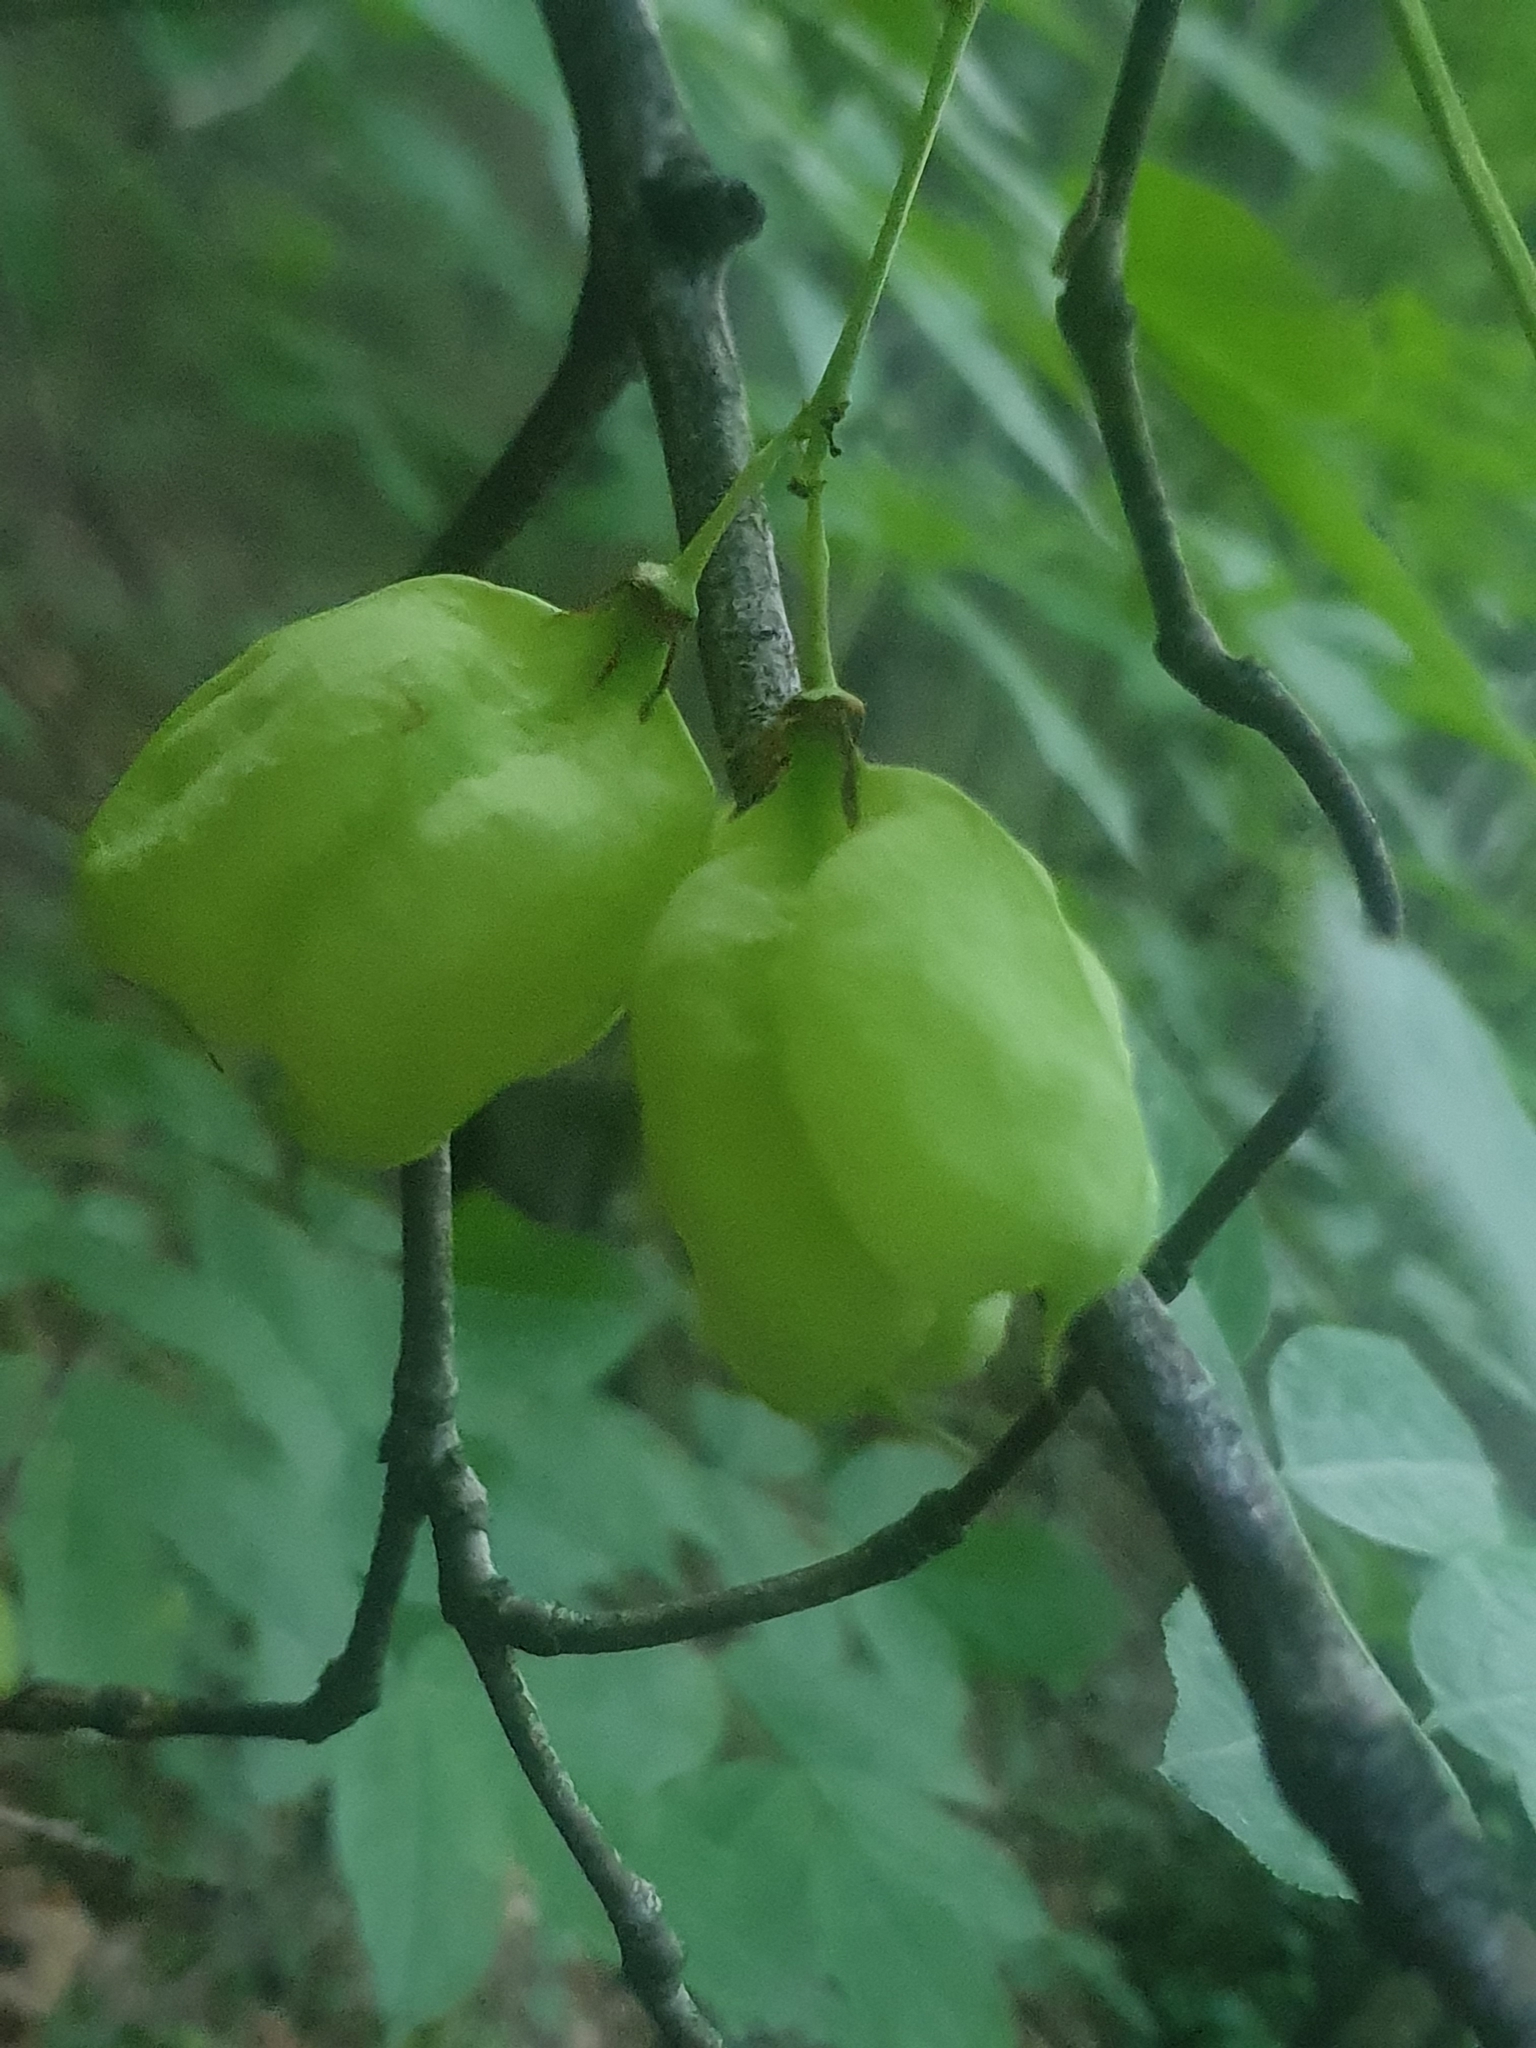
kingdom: Plantae
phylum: Tracheophyta
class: Magnoliopsida
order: Crossosomatales
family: Staphyleaceae
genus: Staphylea
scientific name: Staphylea pinnata
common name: Bladdernut
